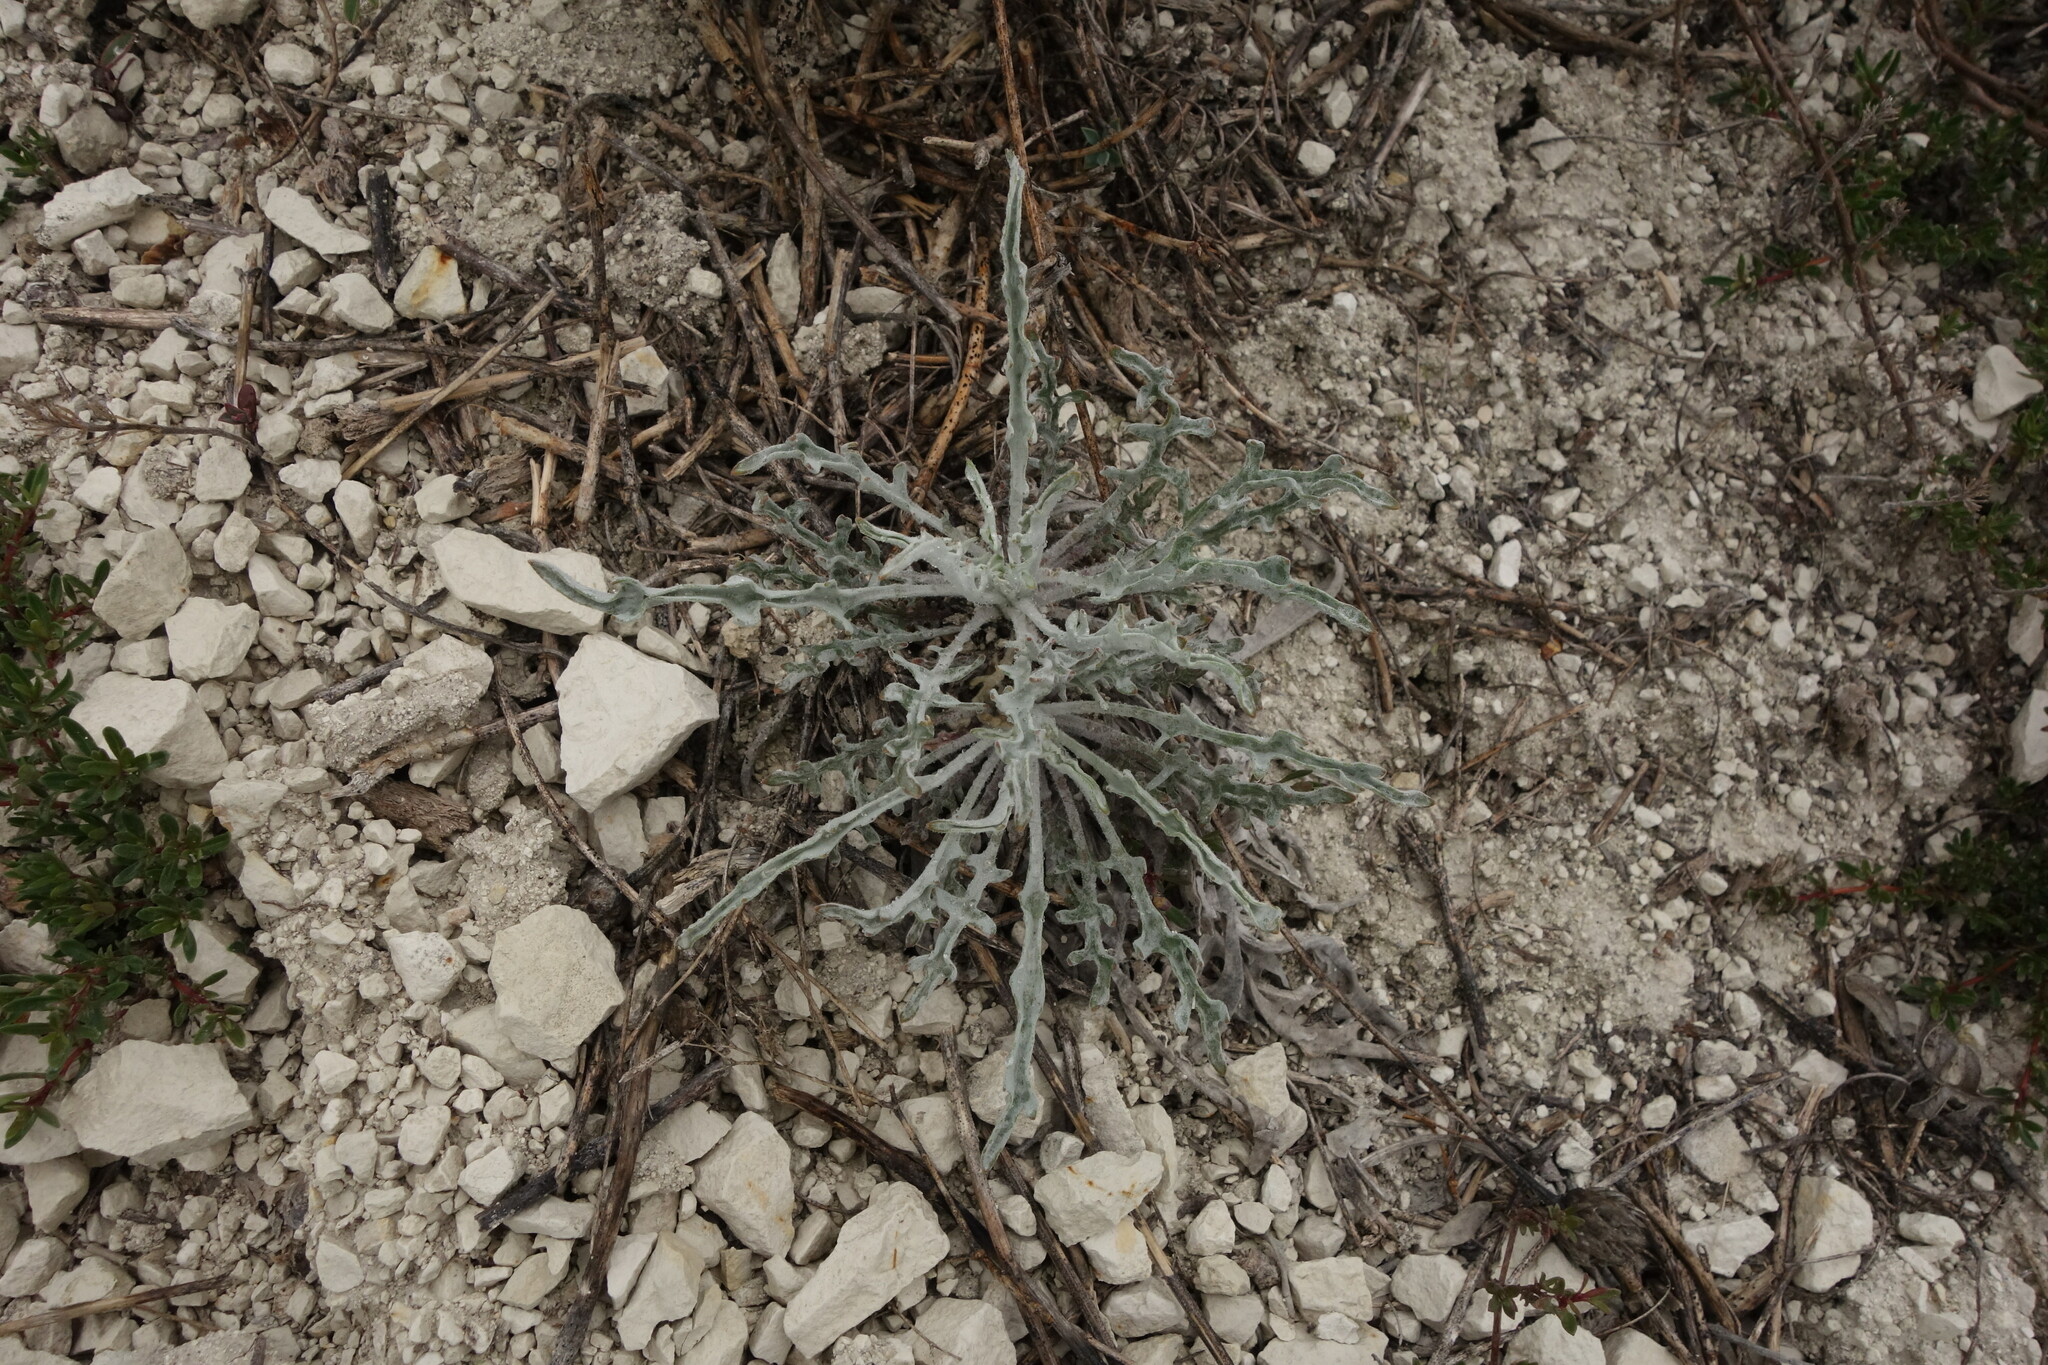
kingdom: Plantae
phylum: Tracheophyta
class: Magnoliopsida
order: Brassicales
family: Brassicaceae
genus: Matthiola
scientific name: Matthiola fragrans
